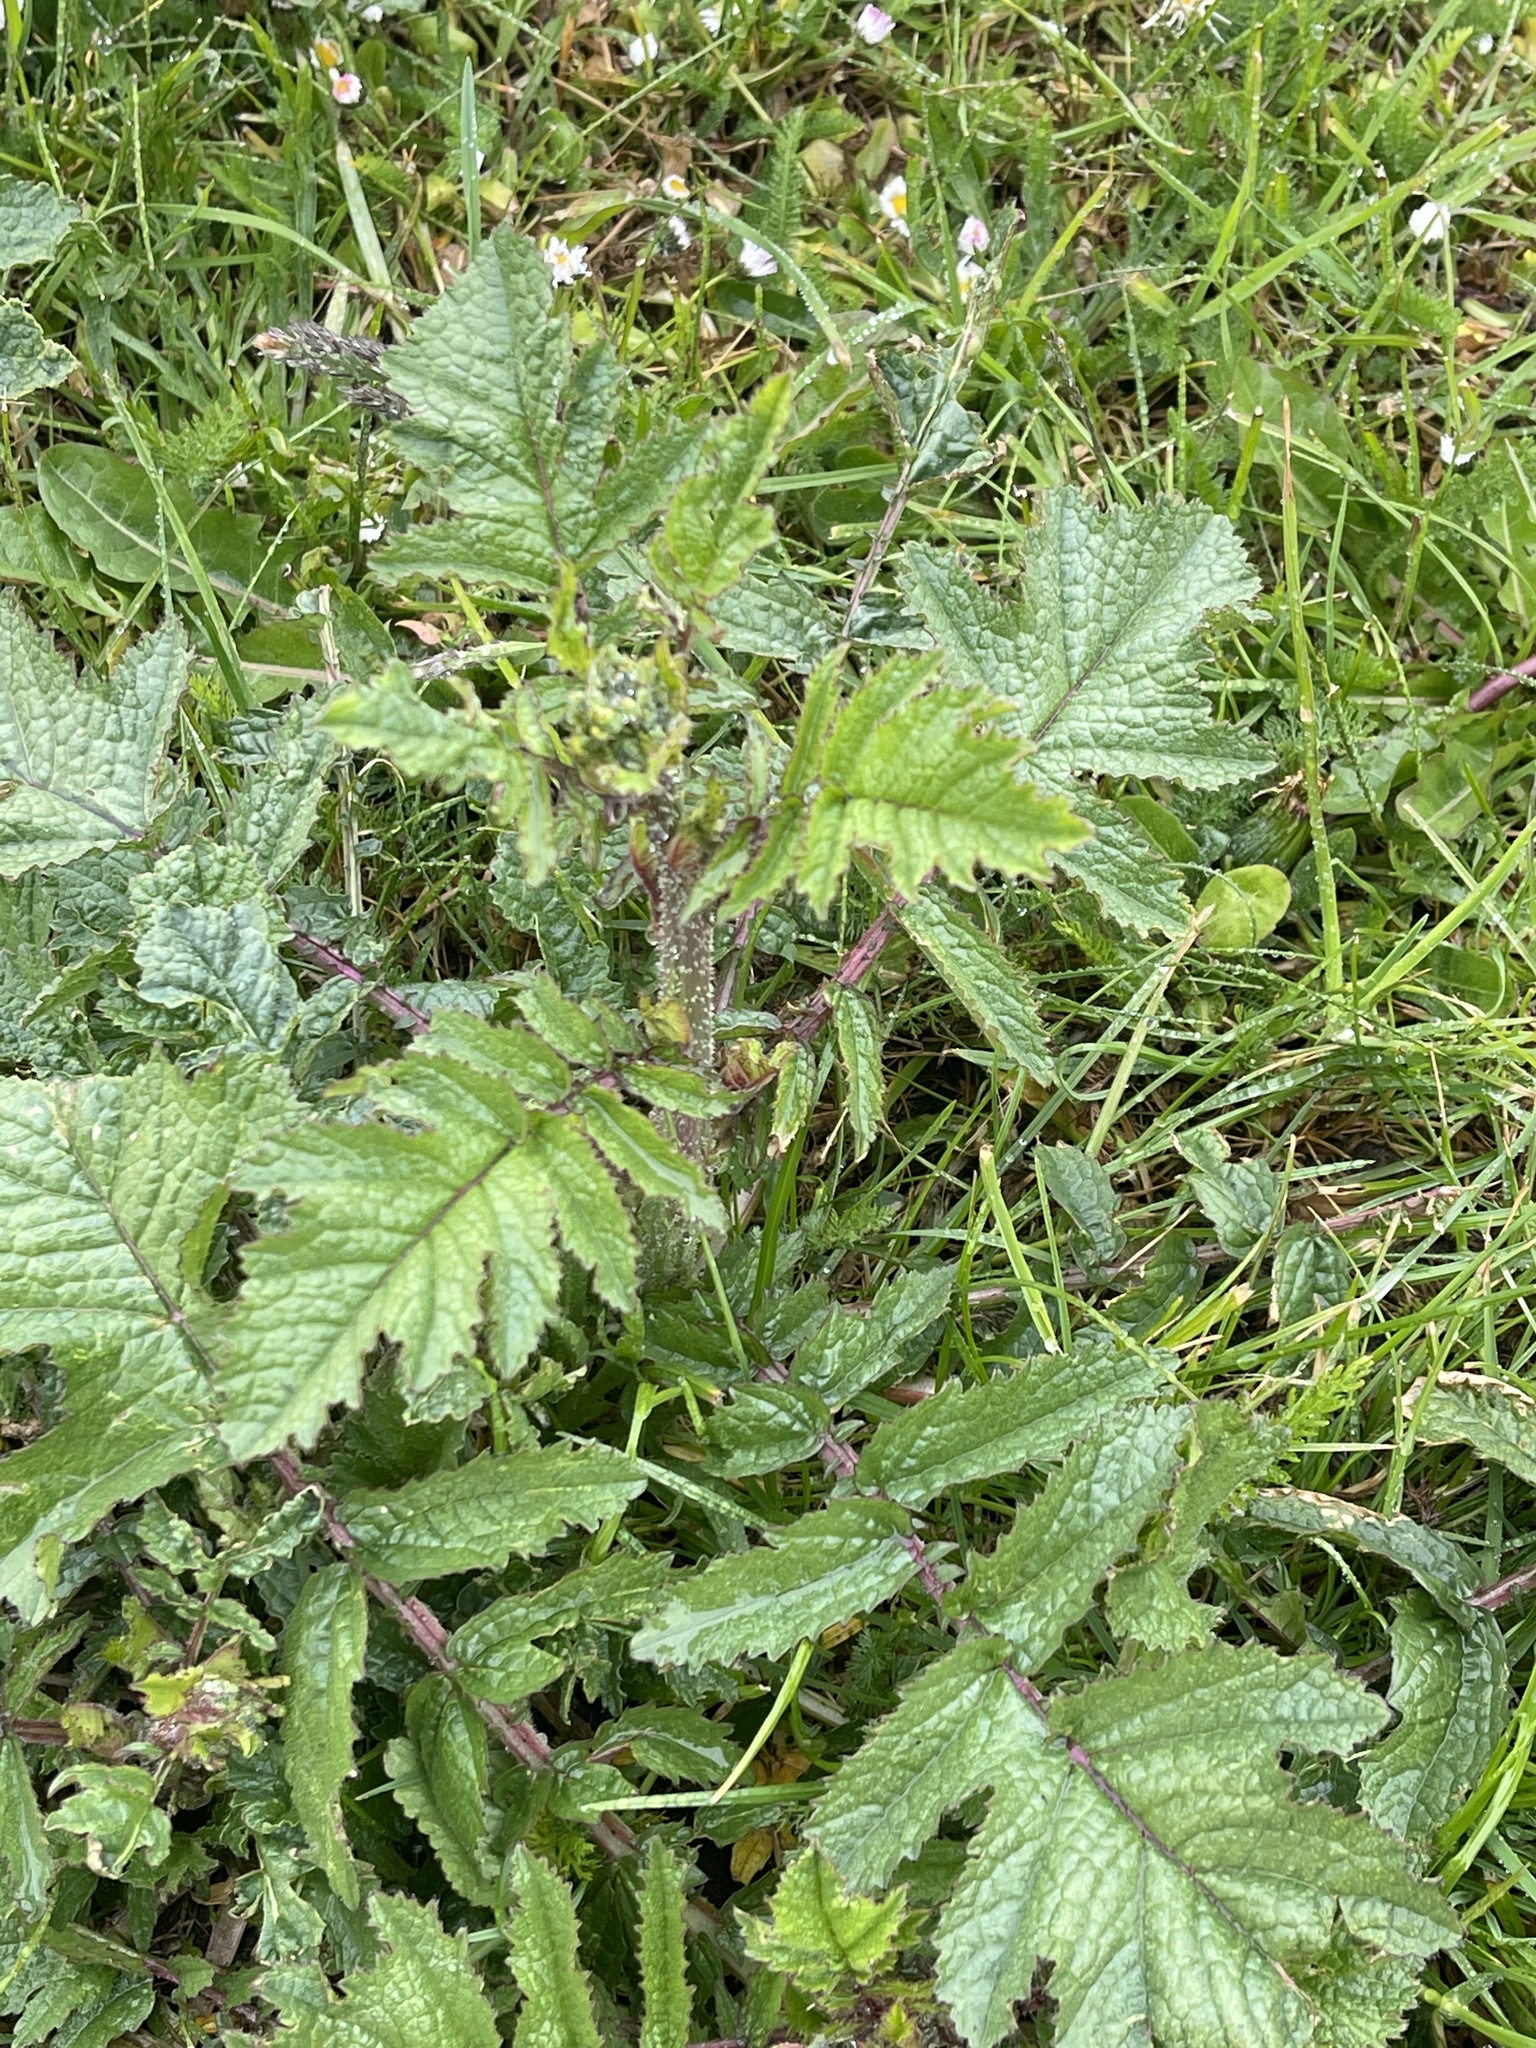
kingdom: Plantae
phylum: Tracheophyta
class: Magnoliopsida
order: Brassicales
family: Brassicaceae
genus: Raphanus
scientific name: Raphanus raphanistrum
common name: Wild radish
